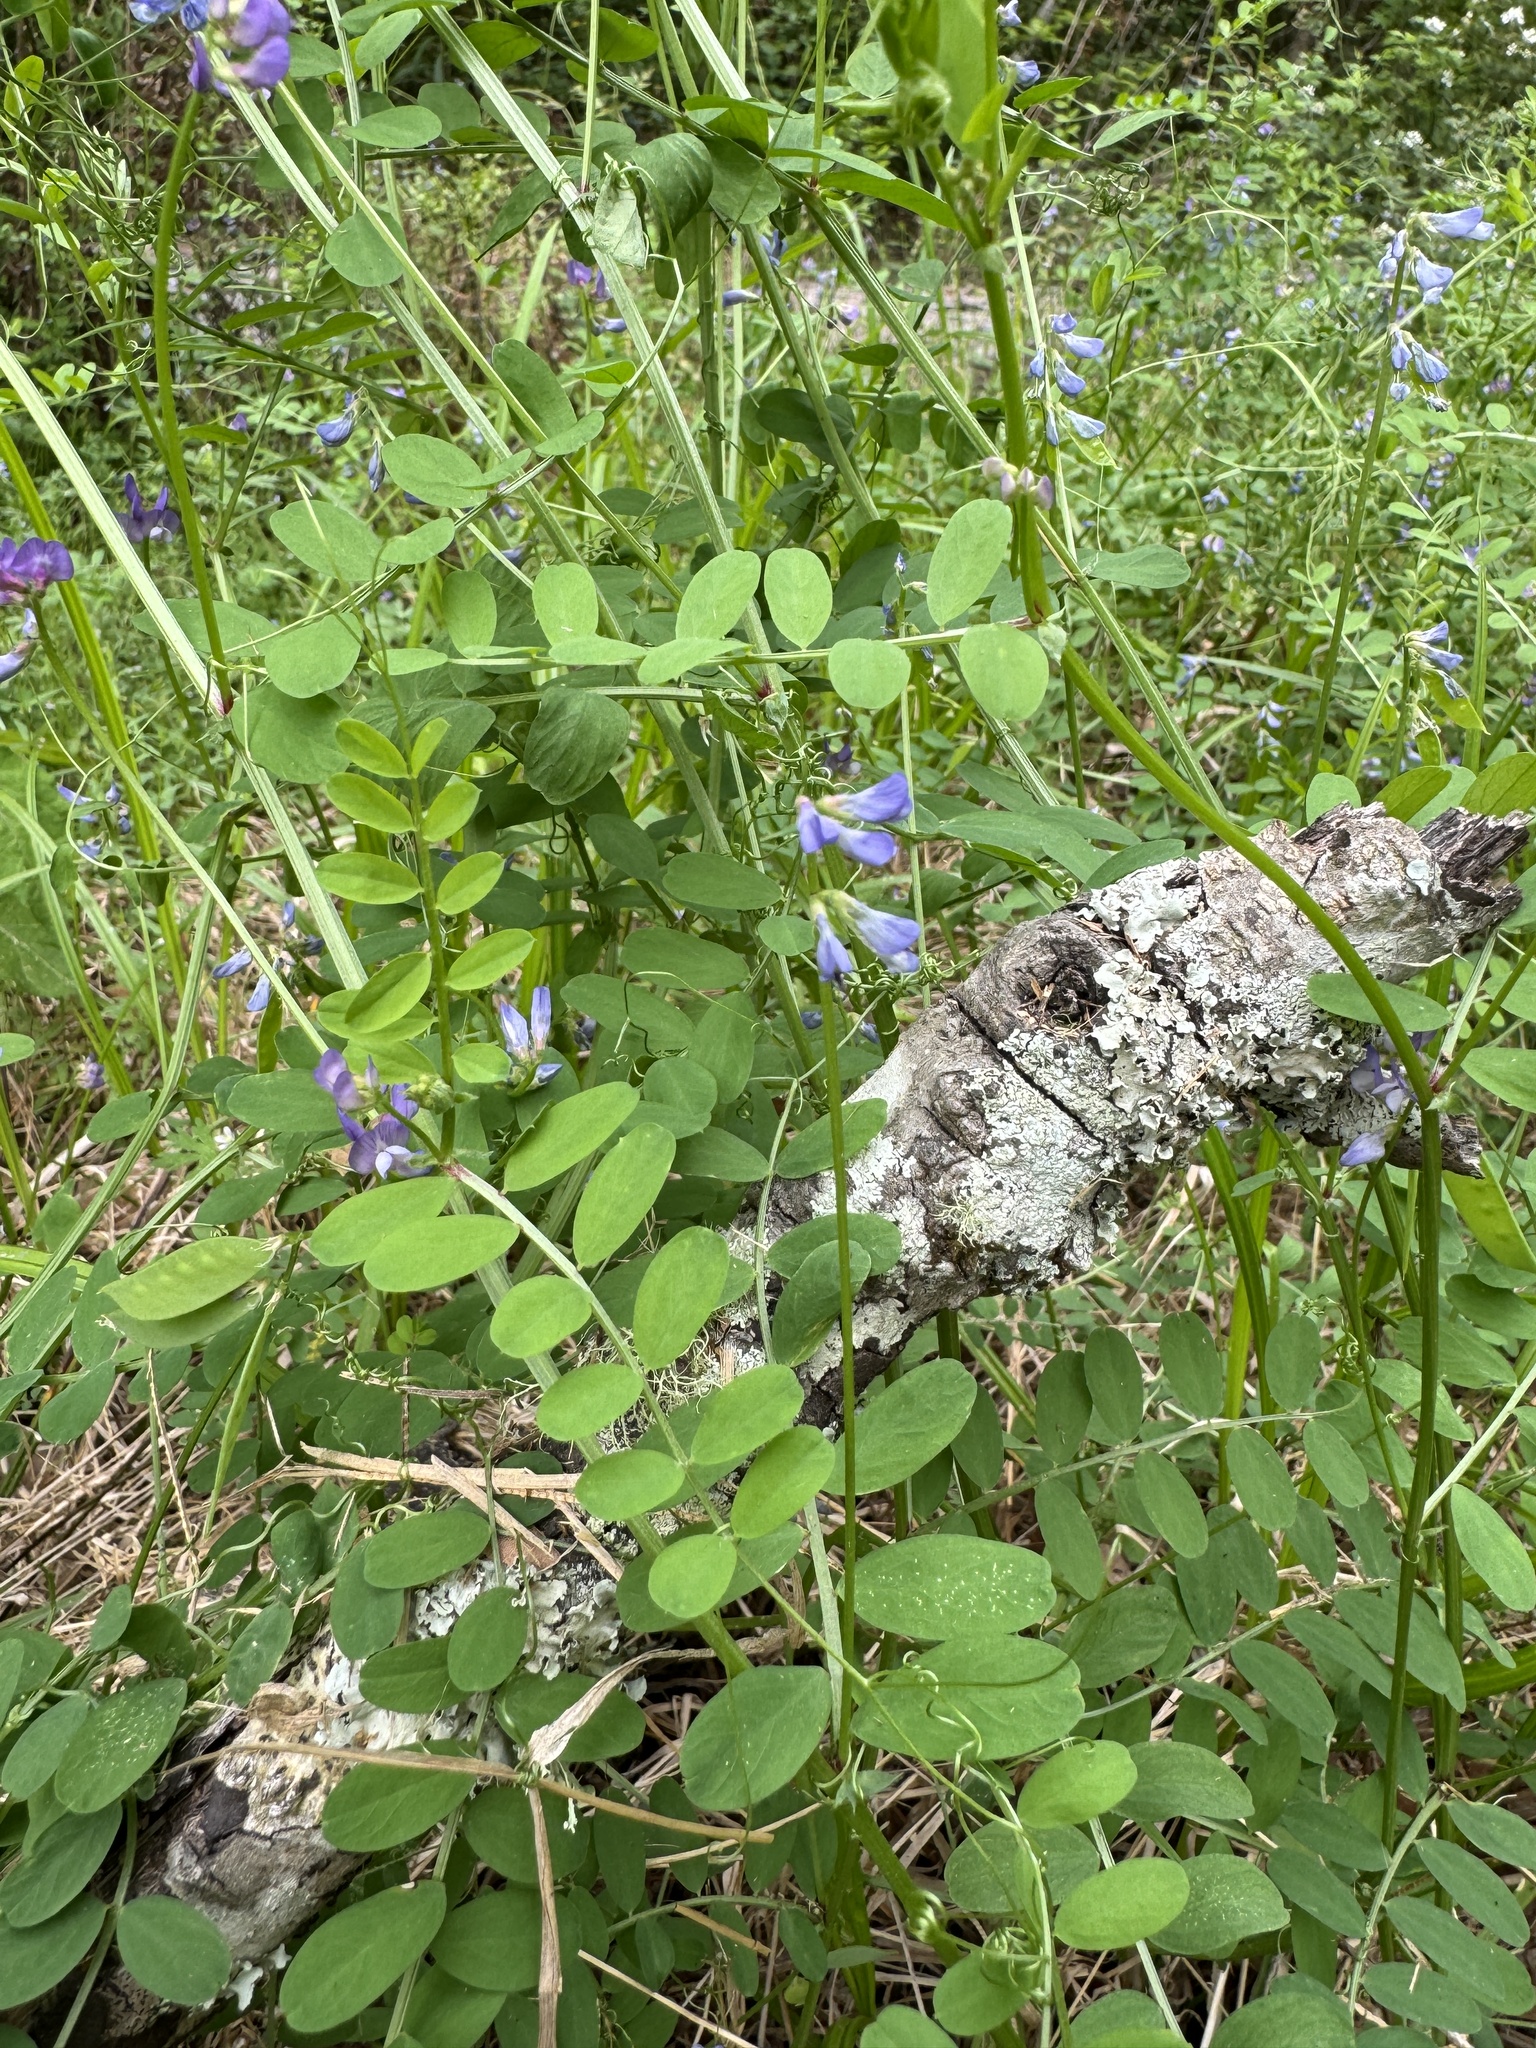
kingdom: Plantae
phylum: Tracheophyta
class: Magnoliopsida
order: Fabales
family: Fabaceae
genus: Vicia
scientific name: Vicia ludoviciana
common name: Louisiana vetch
